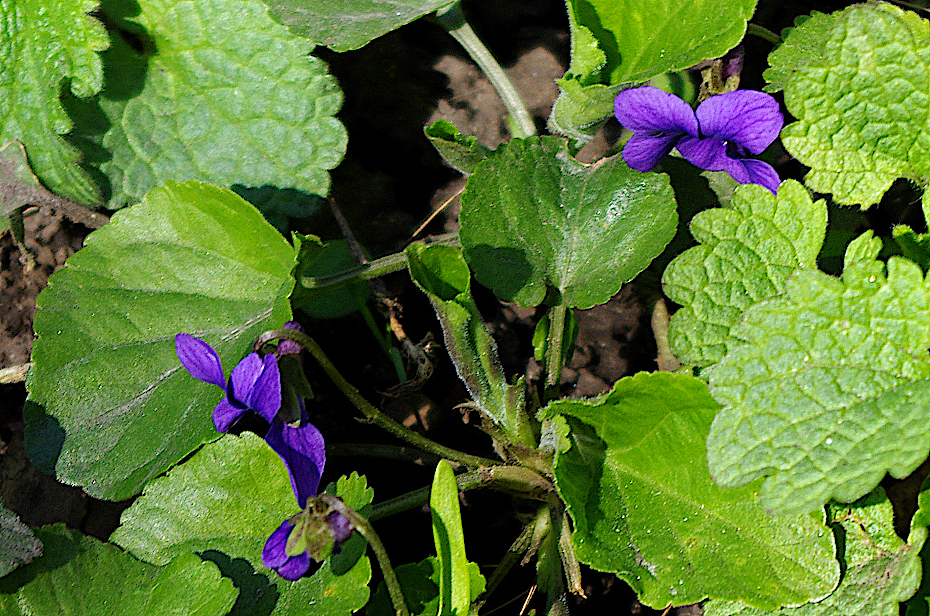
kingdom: Plantae
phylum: Tracheophyta
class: Magnoliopsida
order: Malpighiales
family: Violaceae
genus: Viola
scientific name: Viola odorata
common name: Sweet violet
